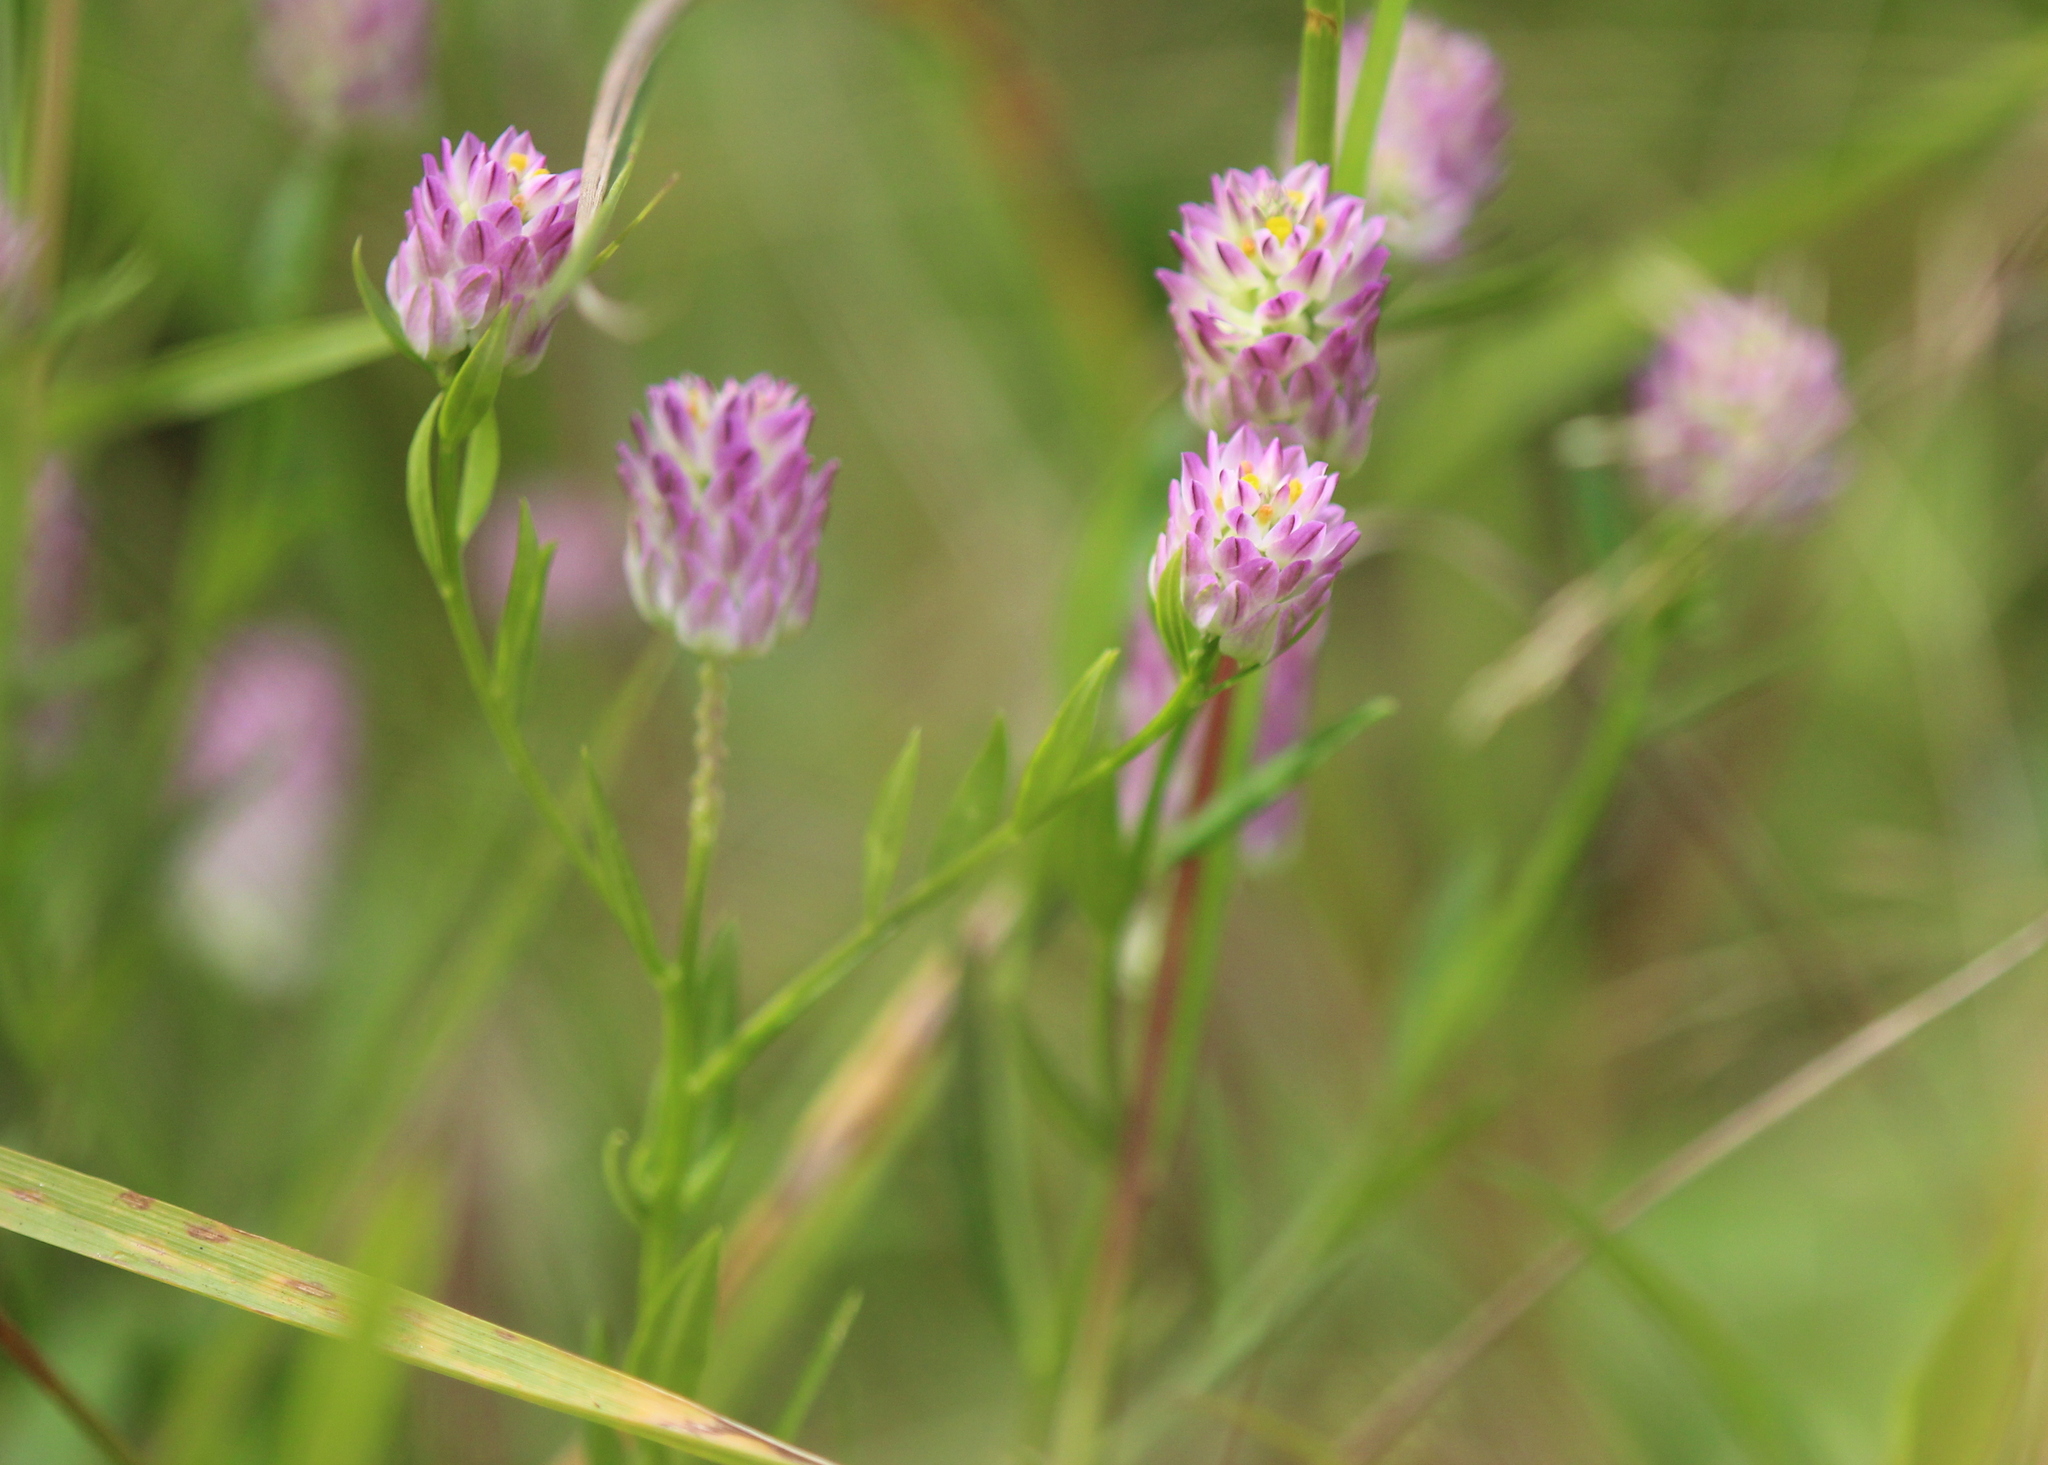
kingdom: Plantae
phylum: Tracheophyta
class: Magnoliopsida
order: Fabales
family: Polygalaceae
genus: Polygala
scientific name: Polygala sanguinea
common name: Blood milkwort
